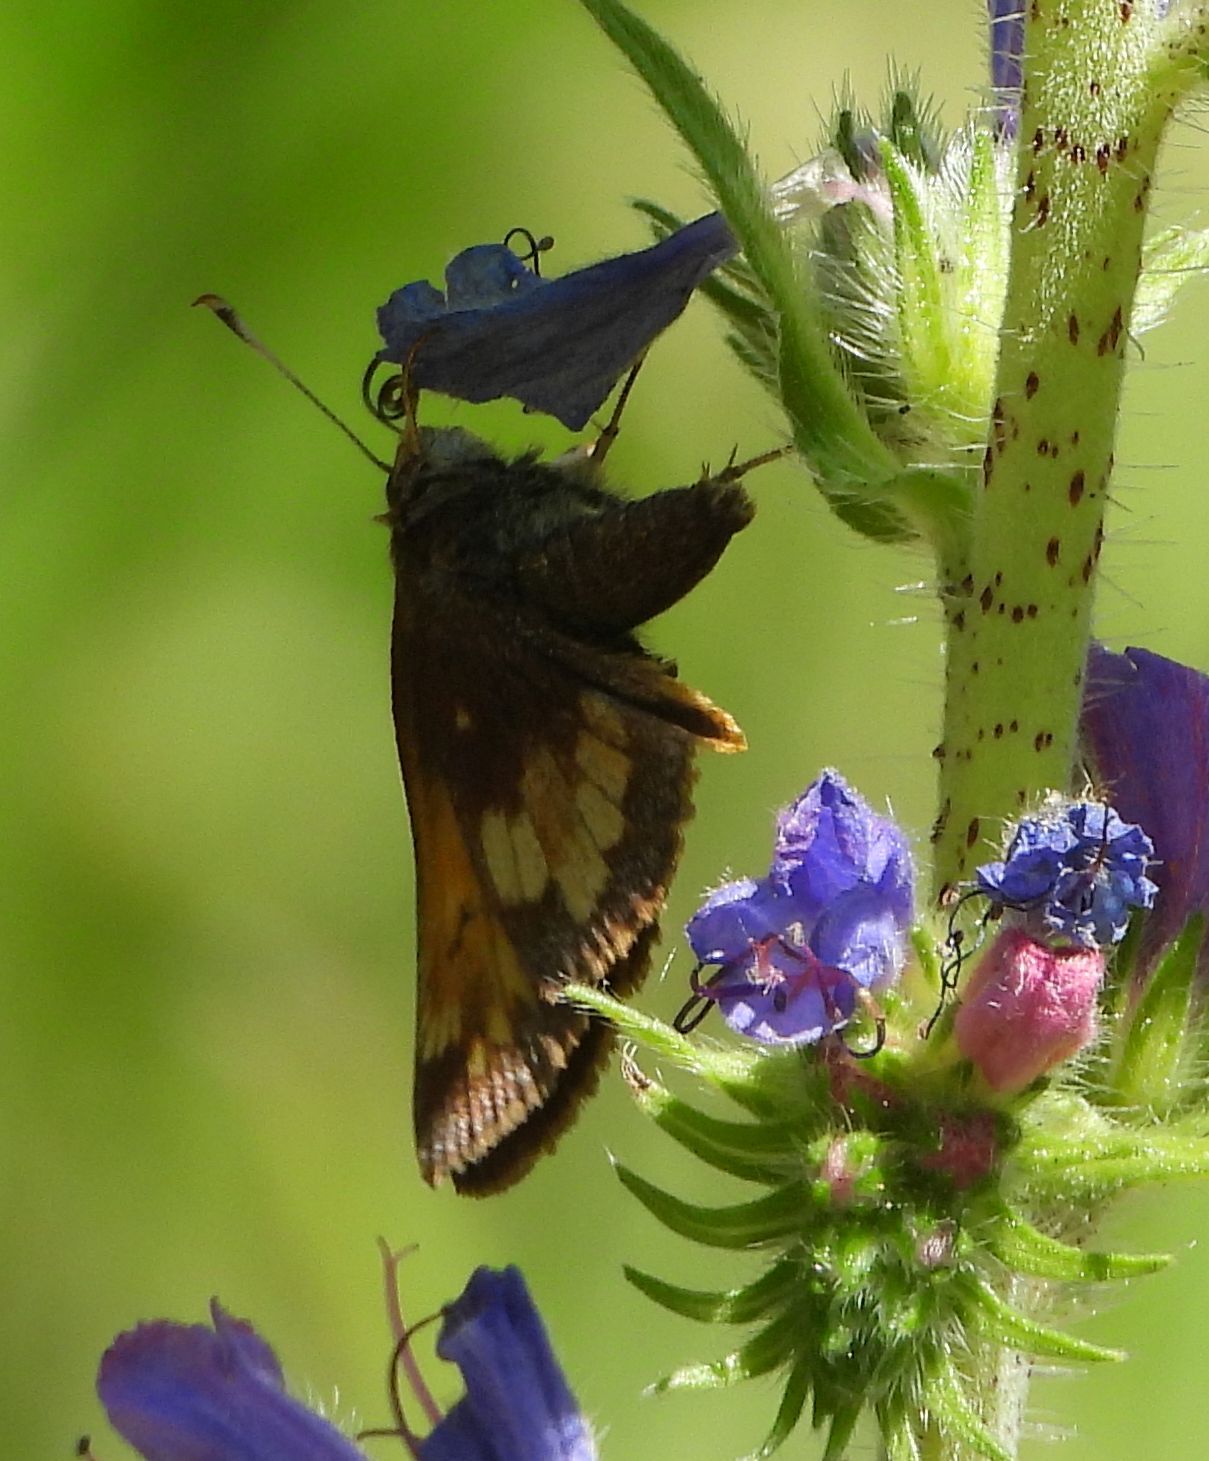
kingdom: Animalia
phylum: Arthropoda
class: Insecta
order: Lepidoptera
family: Hesperiidae
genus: Lon
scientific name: Lon hobomok
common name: Hobomok skipper
